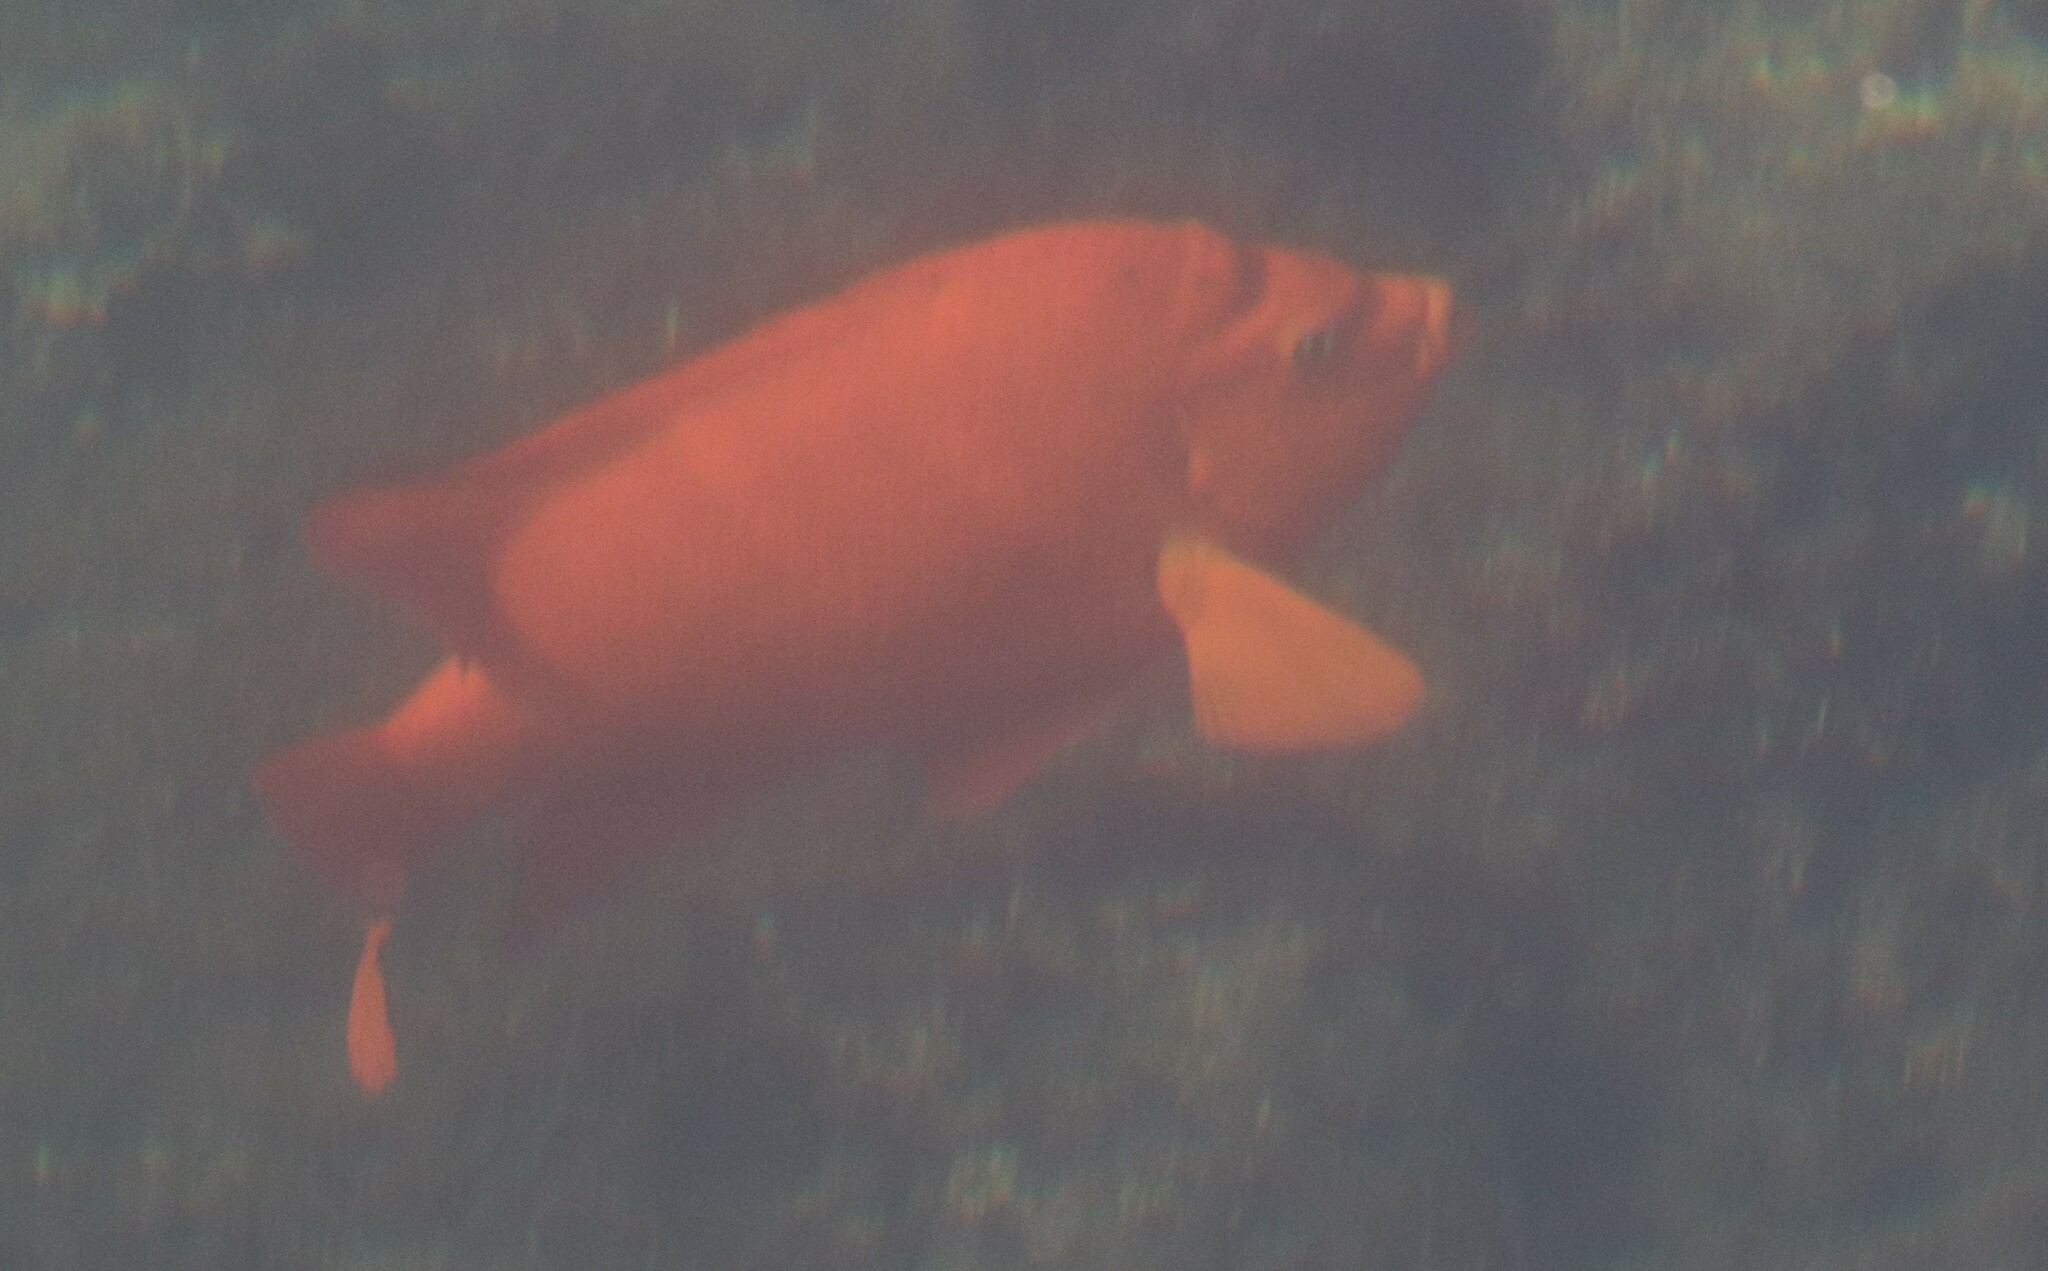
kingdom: Animalia
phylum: Chordata
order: Perciformes
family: Pomacentridae
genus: Hypsypops
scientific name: Hypsypops rubicundus
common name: Garibaldi
